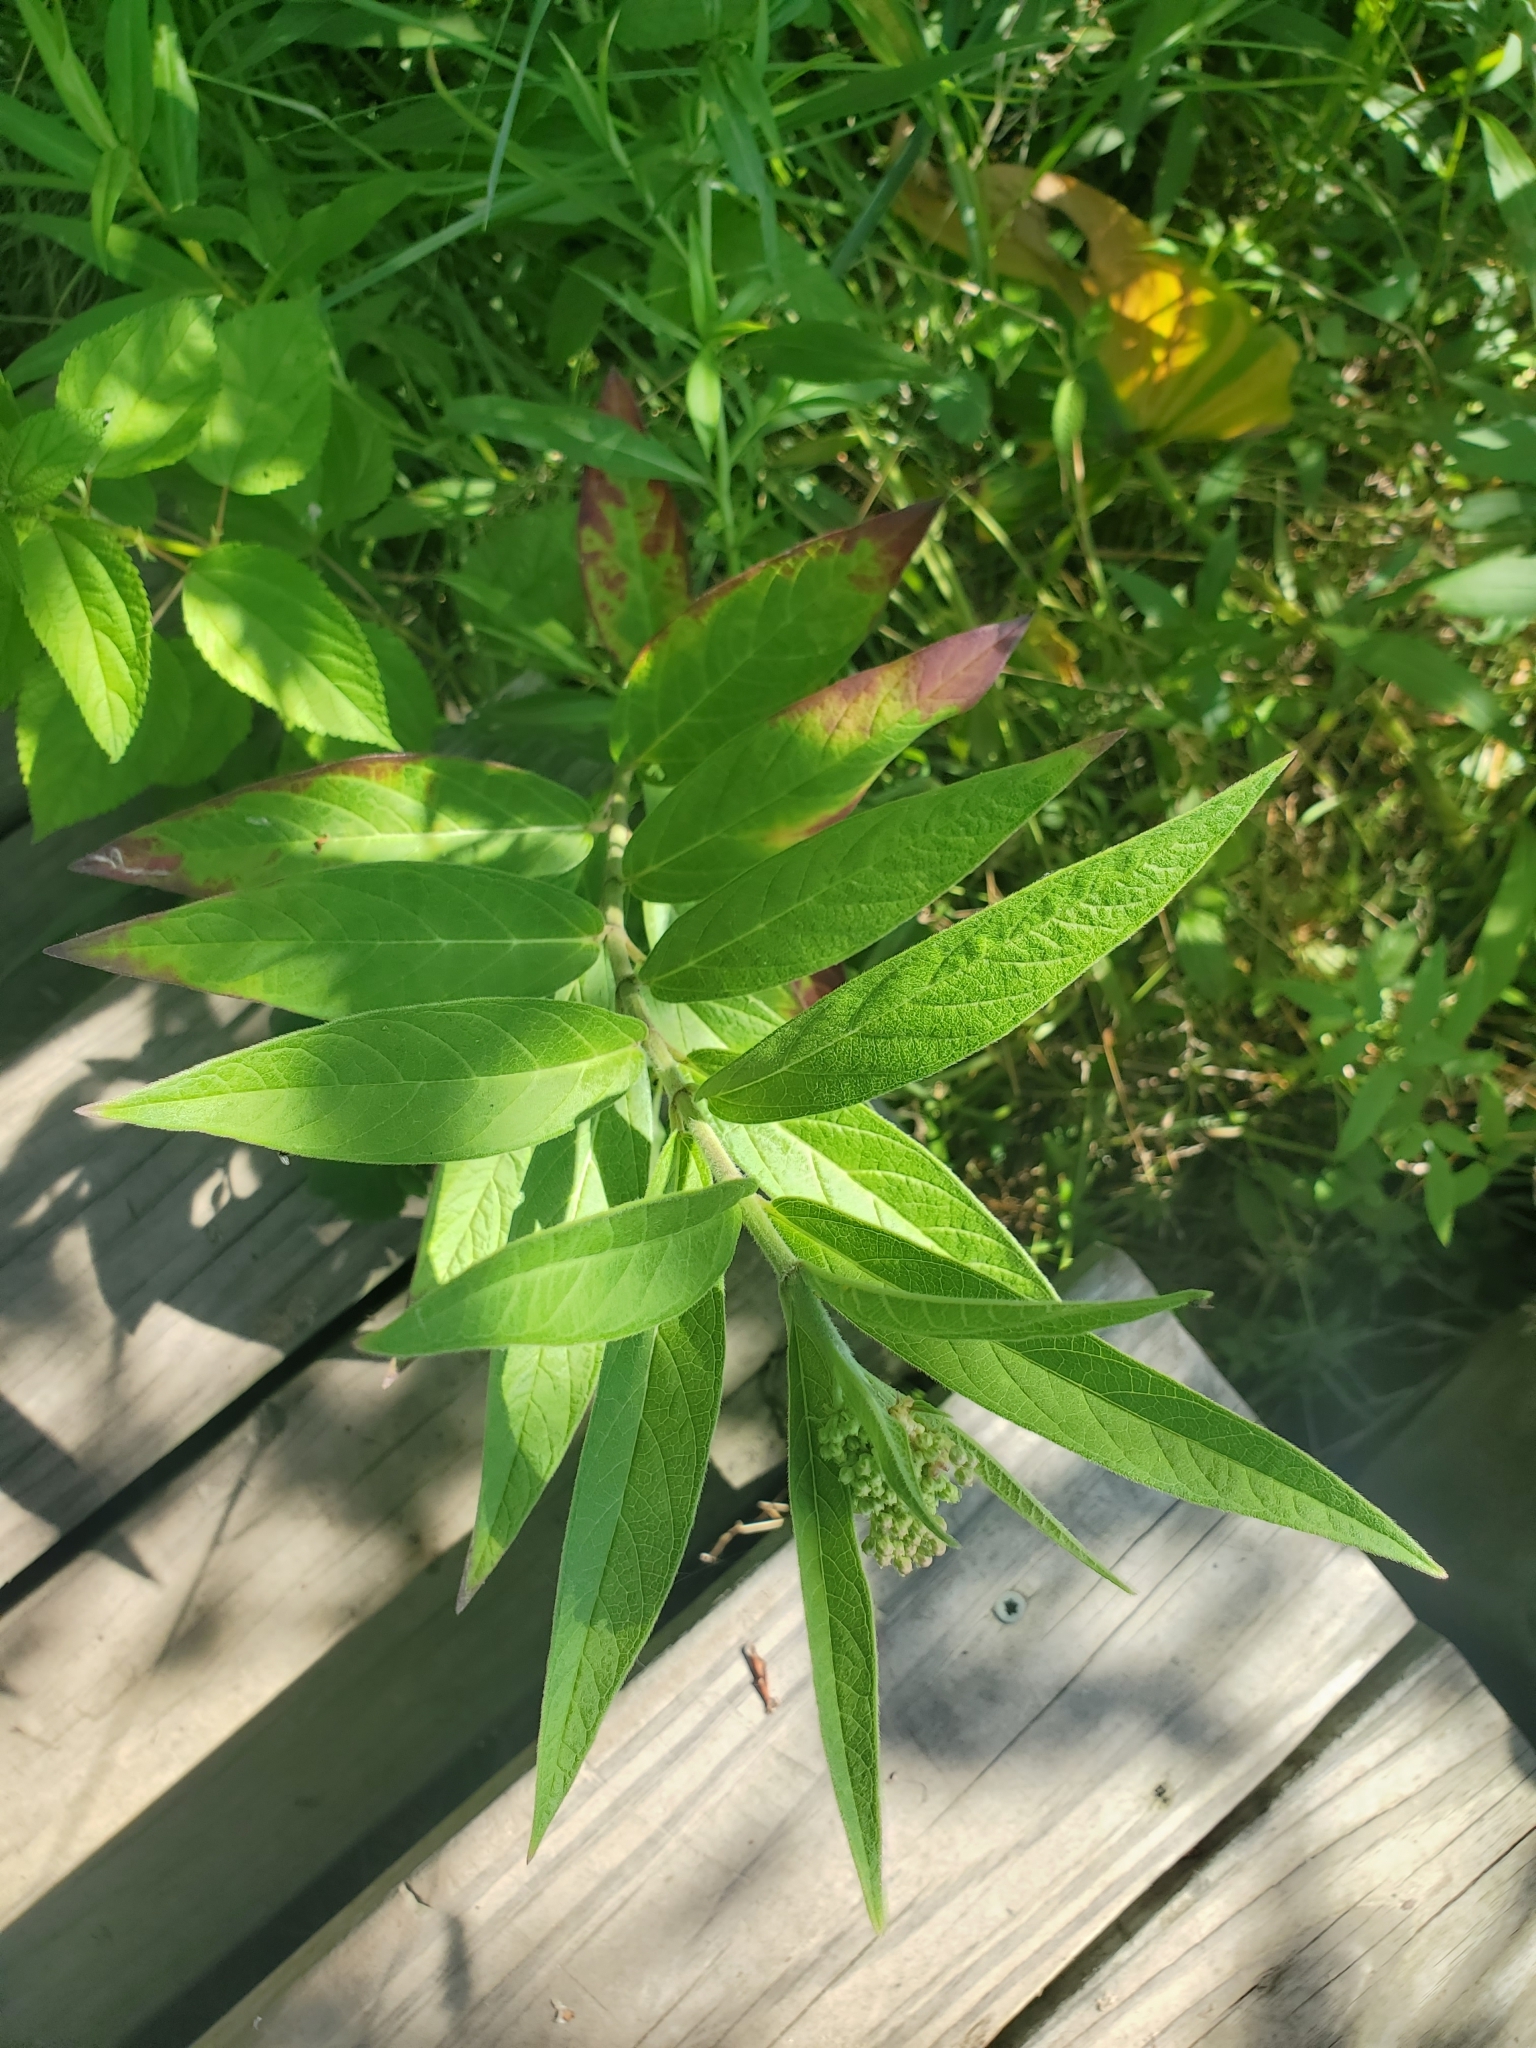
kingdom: Plantae
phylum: Tracheophyta
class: Magnoliopsida
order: Gentianales
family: Apocynaceae
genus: Asclepias
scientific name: Asclepias incarnata
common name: Swamp milkweed
